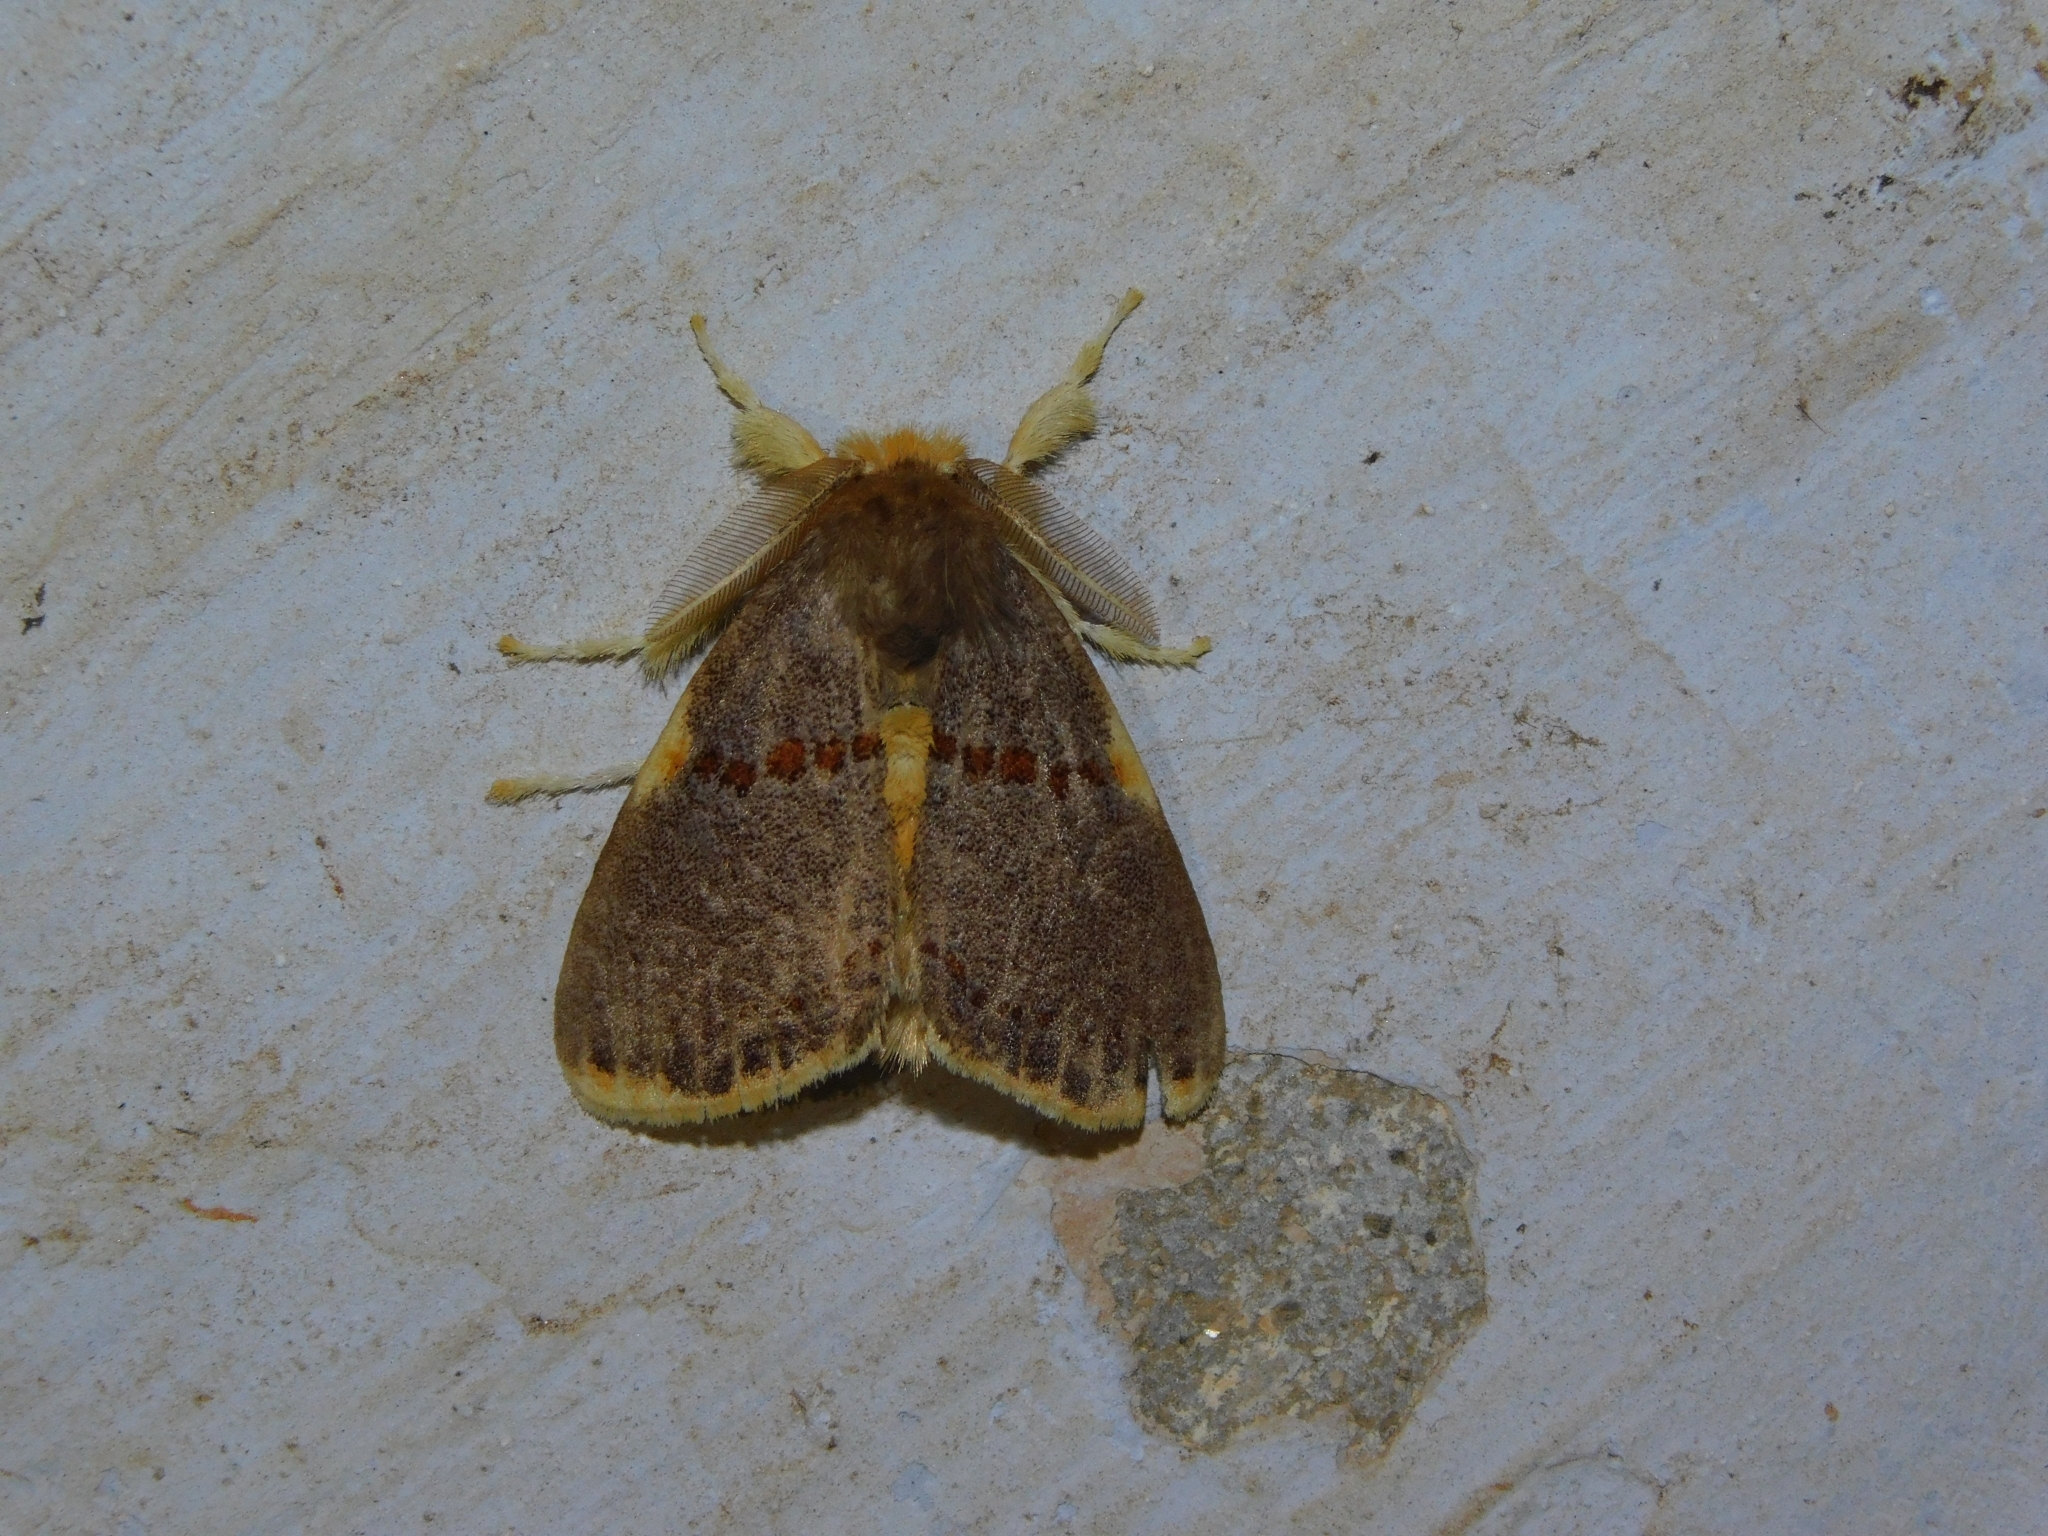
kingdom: Animalia
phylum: Arthropoda
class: Insecta
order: Lepidoptera
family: Erebidae
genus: Euproctis
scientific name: Euproctis luteifascia
